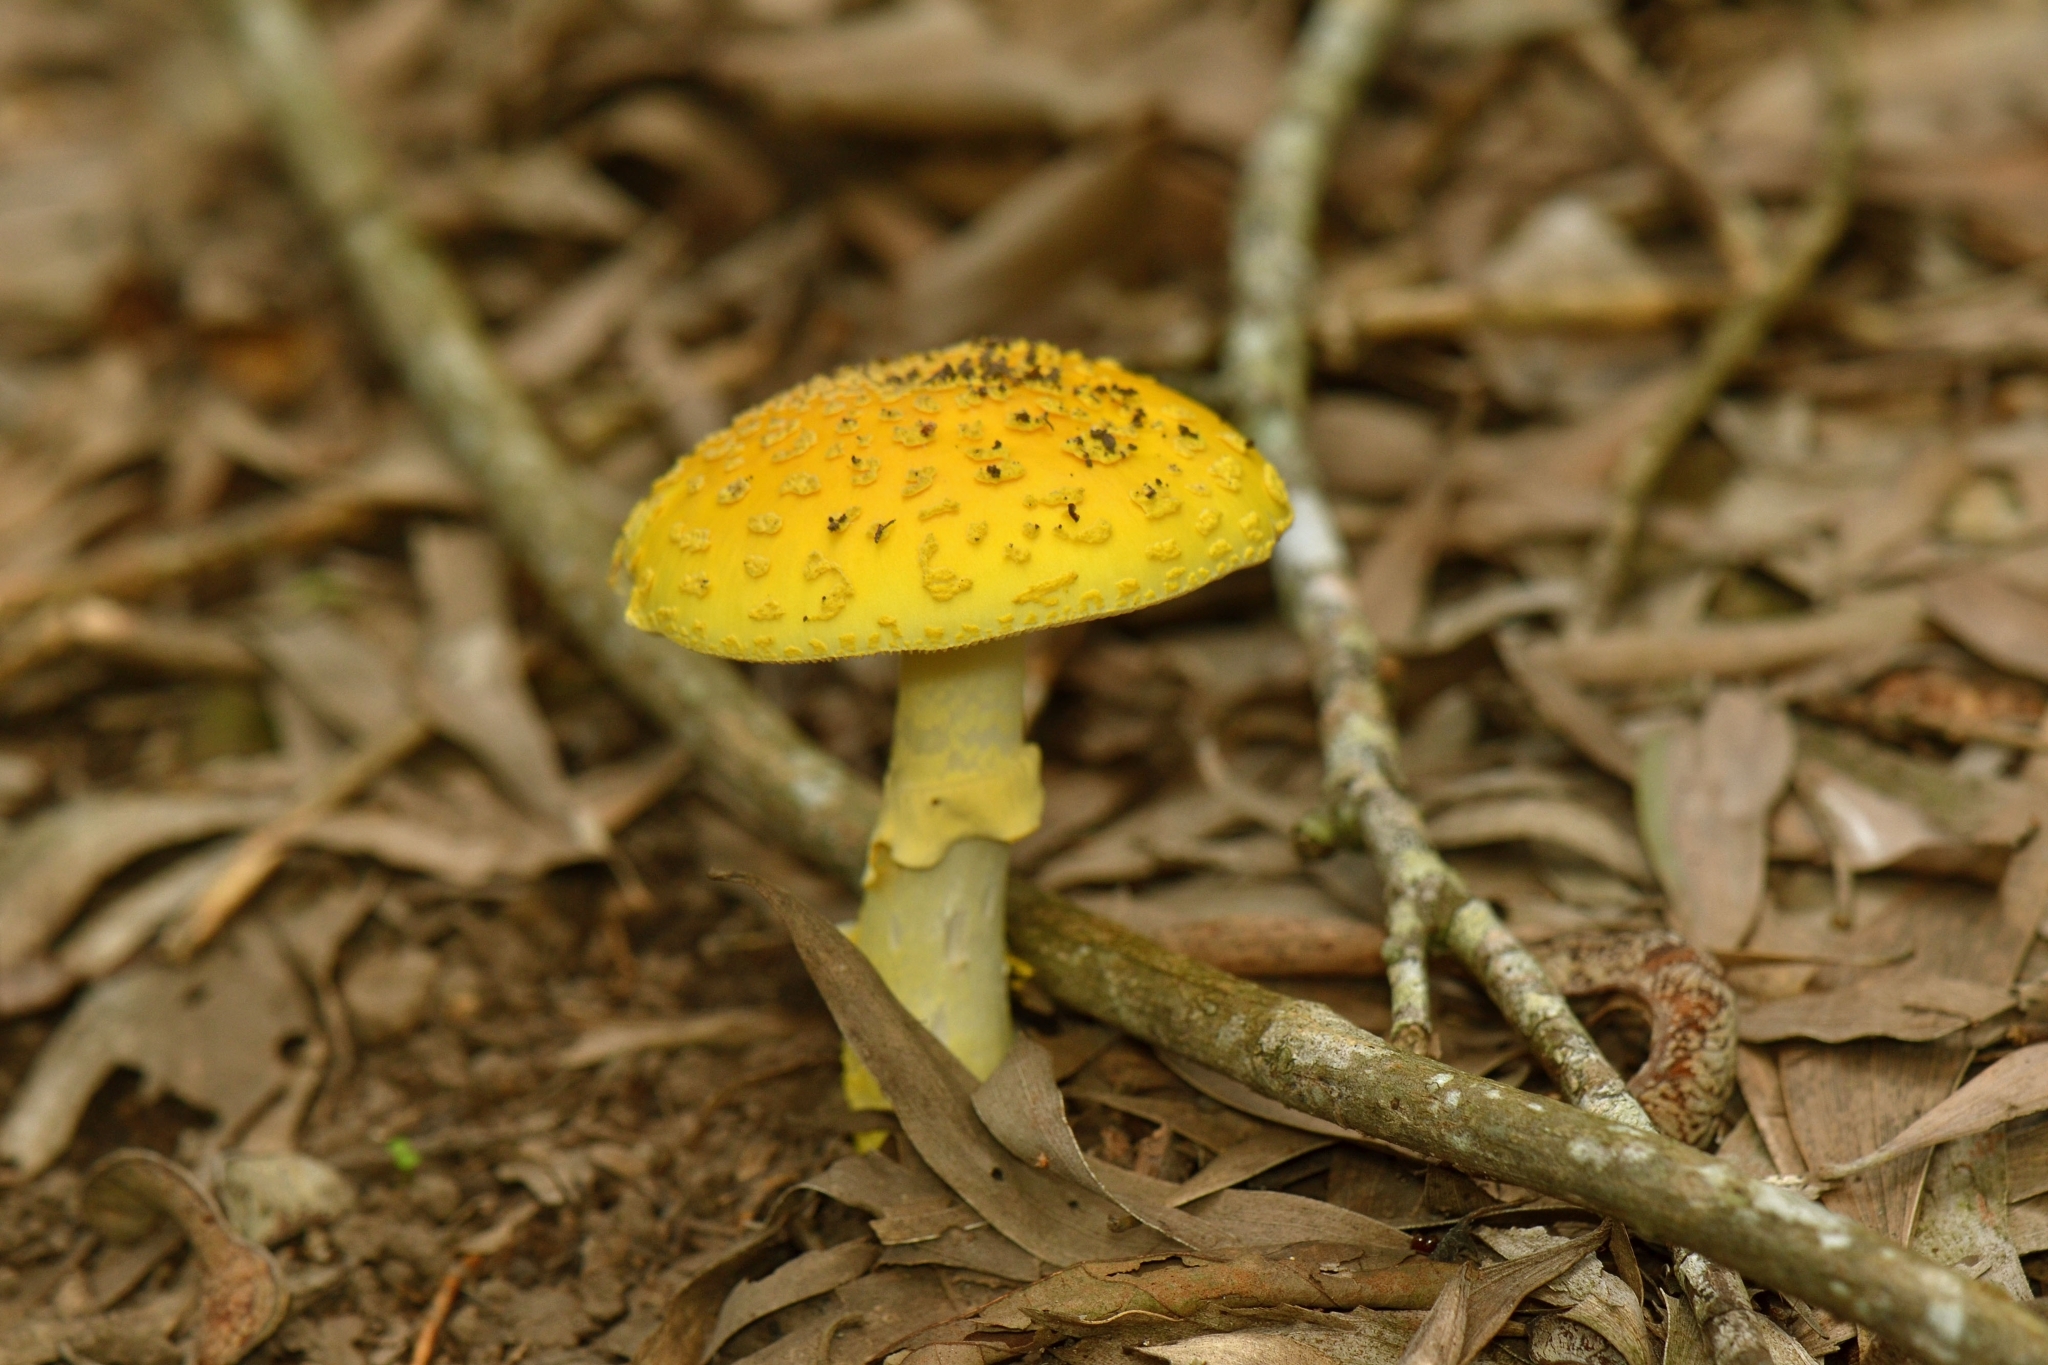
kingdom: Fungi
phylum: Basidiomycota
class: Agaricomycetes
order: Agaricales
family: Amanitaceae
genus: Amanita
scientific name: Amanita flavella
